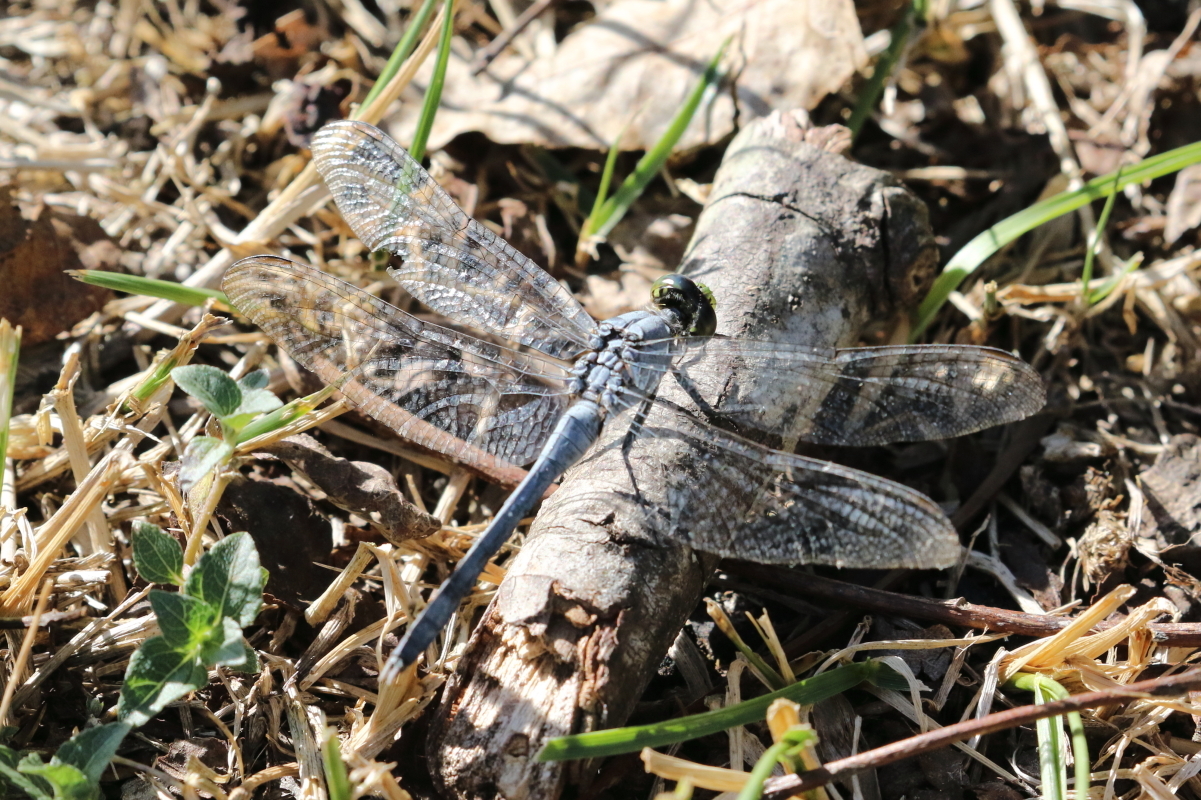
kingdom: Animalia
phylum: Arthropoda
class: Insecta
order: Odonata
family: Libellulidae
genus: Erythemis
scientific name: Erythemis simplicicollis
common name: Eastern pondhawk
